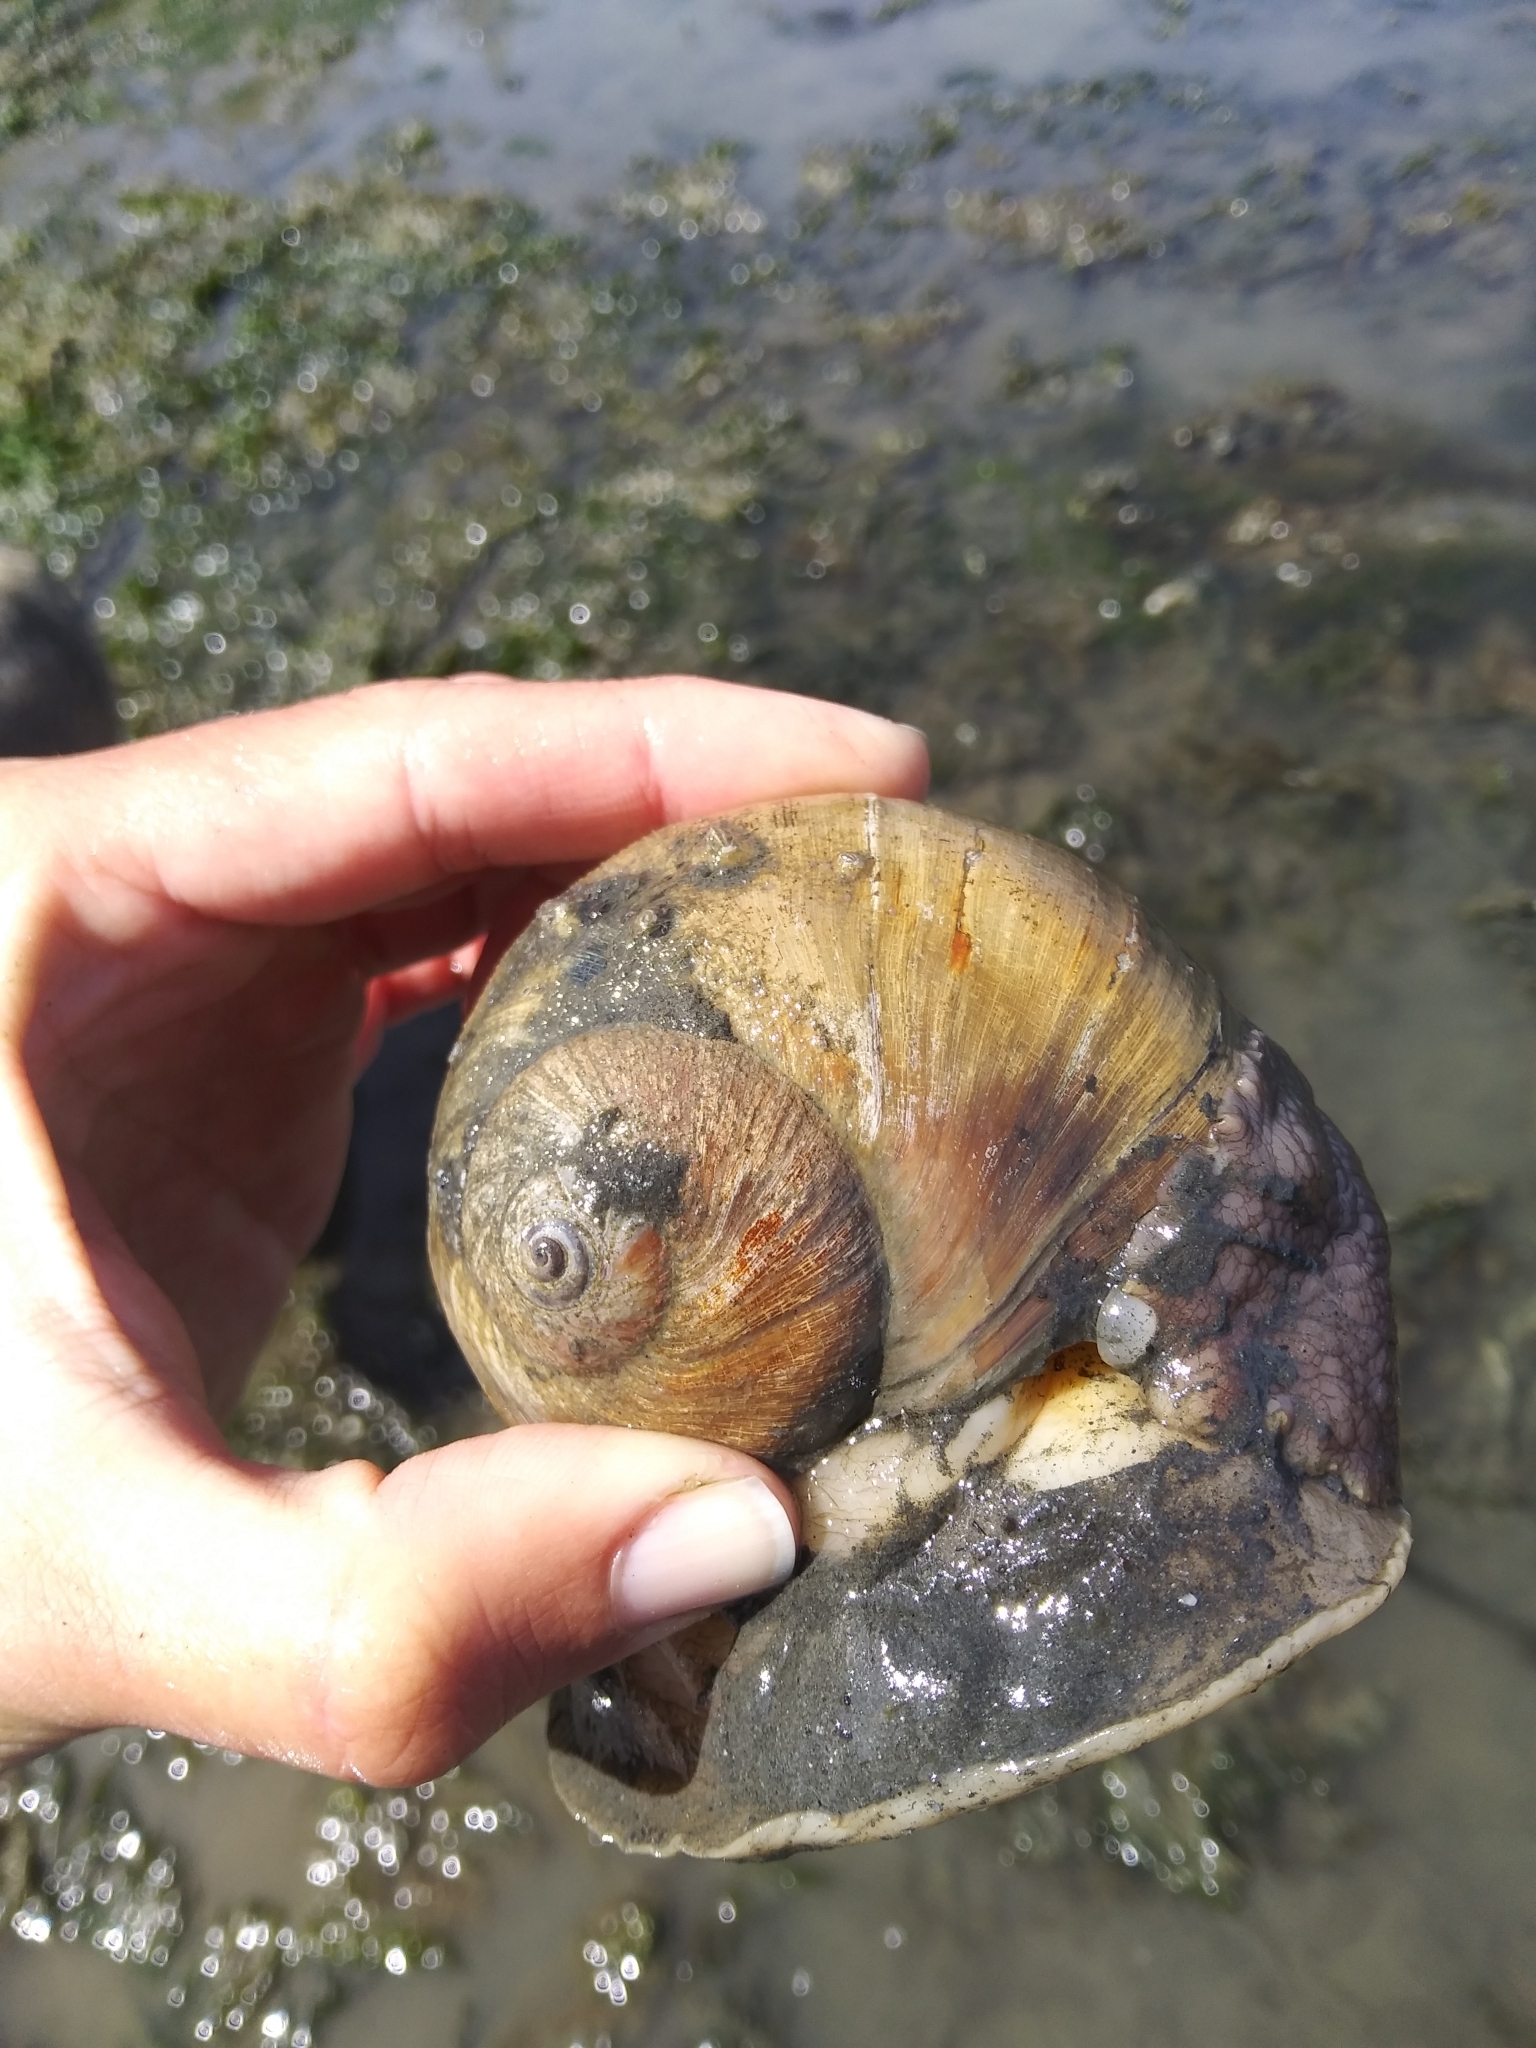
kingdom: Animalia
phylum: Mollusca
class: Gastropoda
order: Littorinimorpha
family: Naticidae
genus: Neverita
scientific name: Neverita lewisii
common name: Lewis' moonsnail
